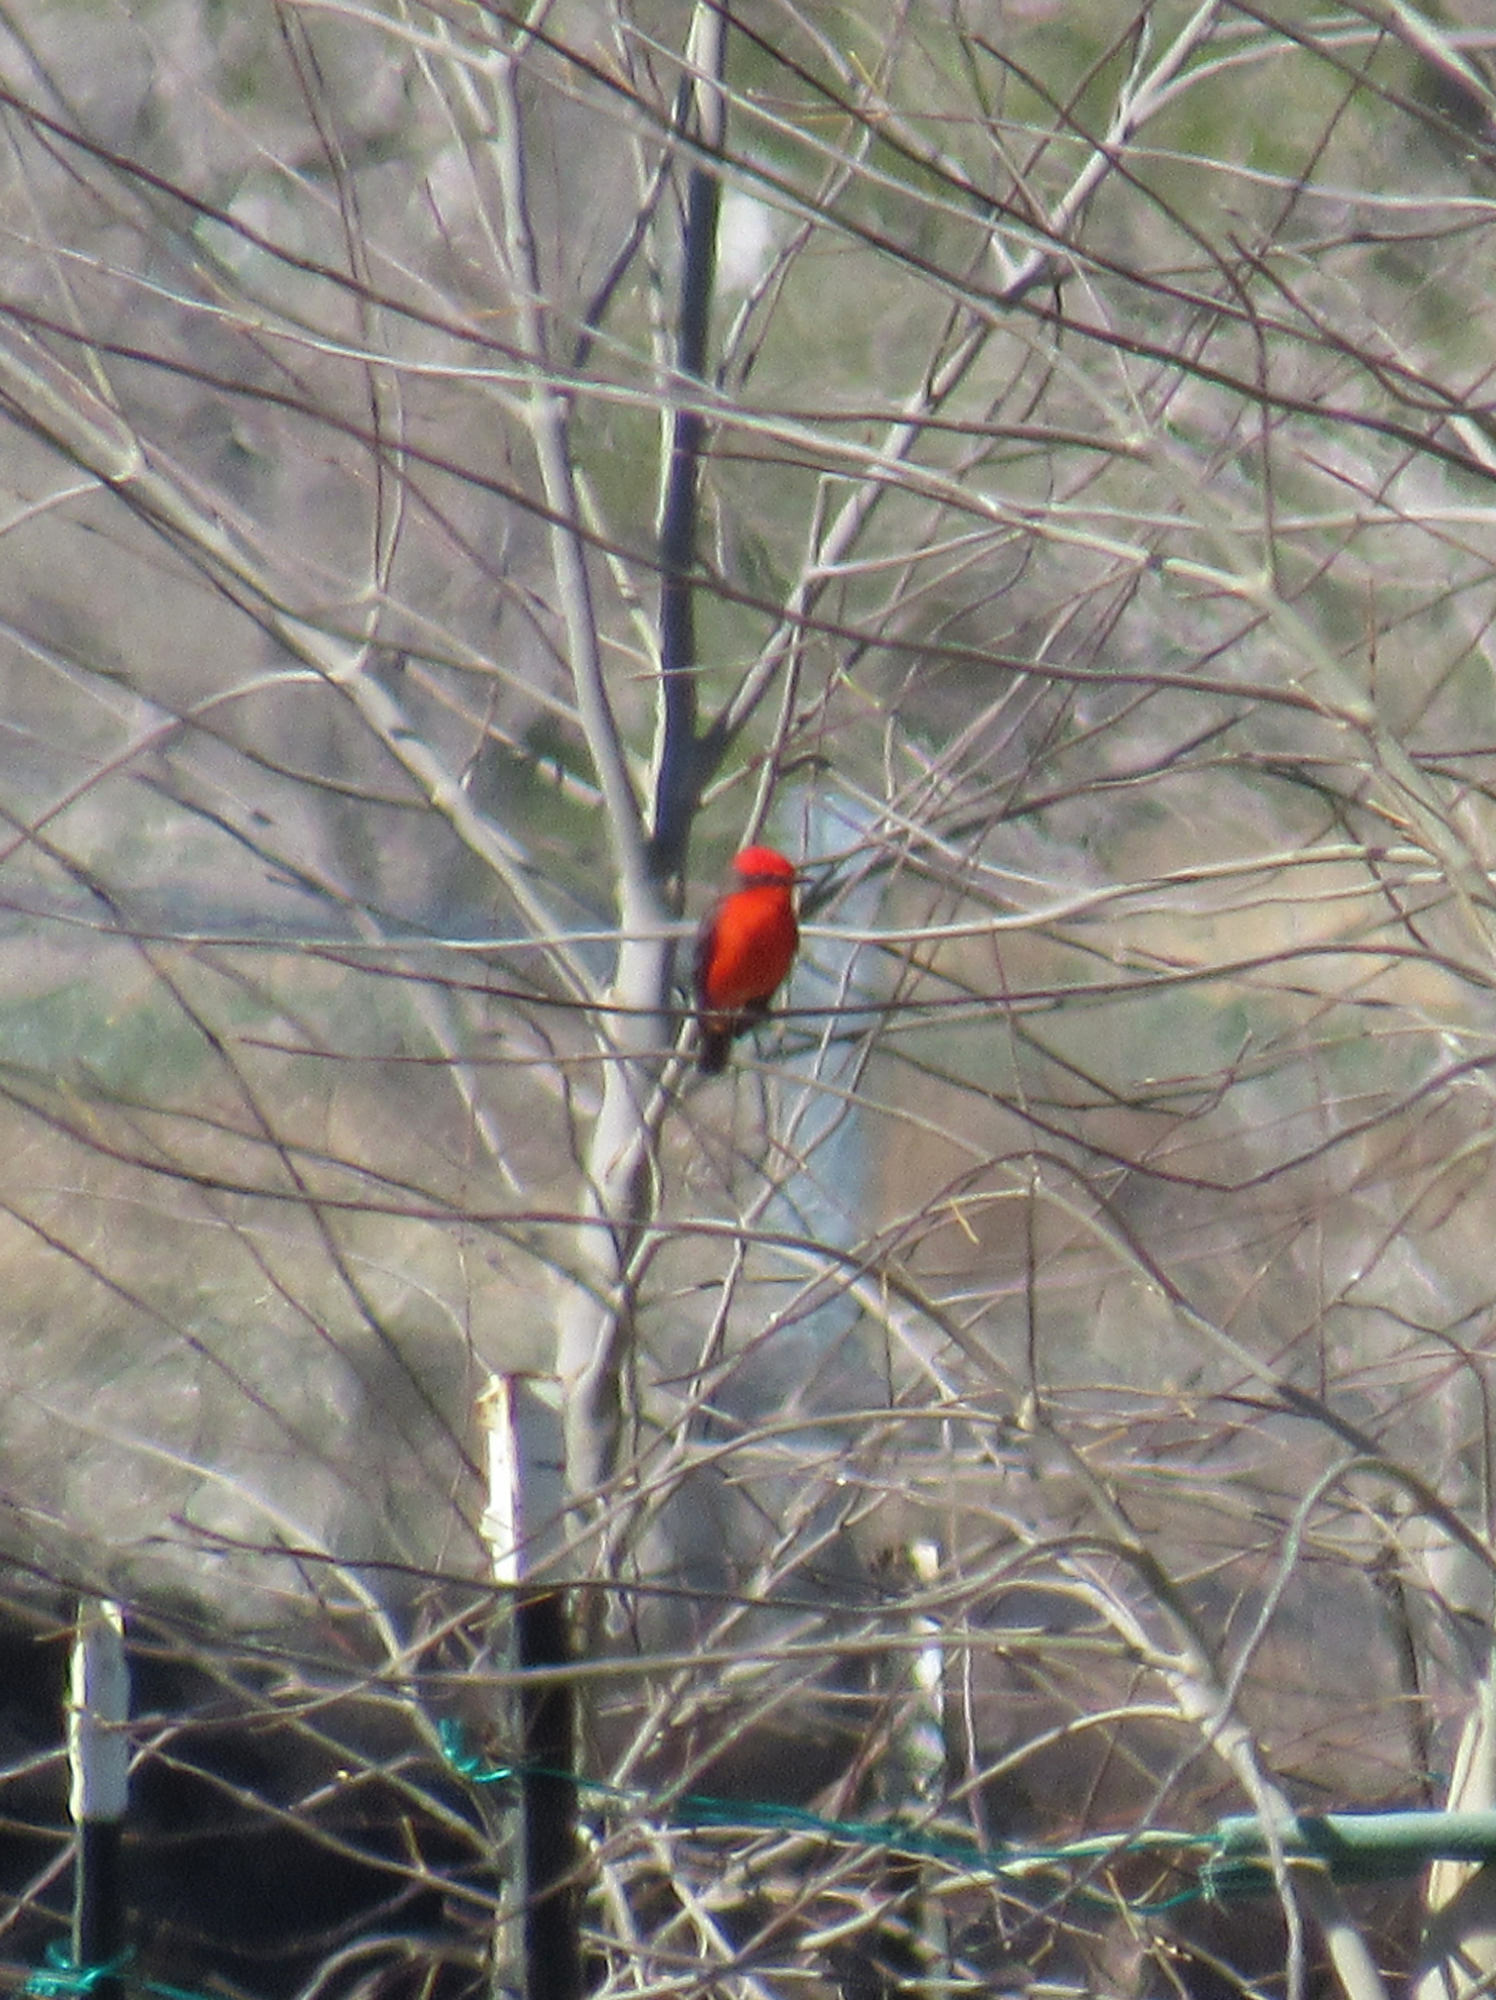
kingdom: Animalia
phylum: Chordata
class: Aves
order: Passeriformes
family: Tyrannidae
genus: Pyrocephalus
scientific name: Pyrocephalus rubinus
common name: Vermilion flycatcher
